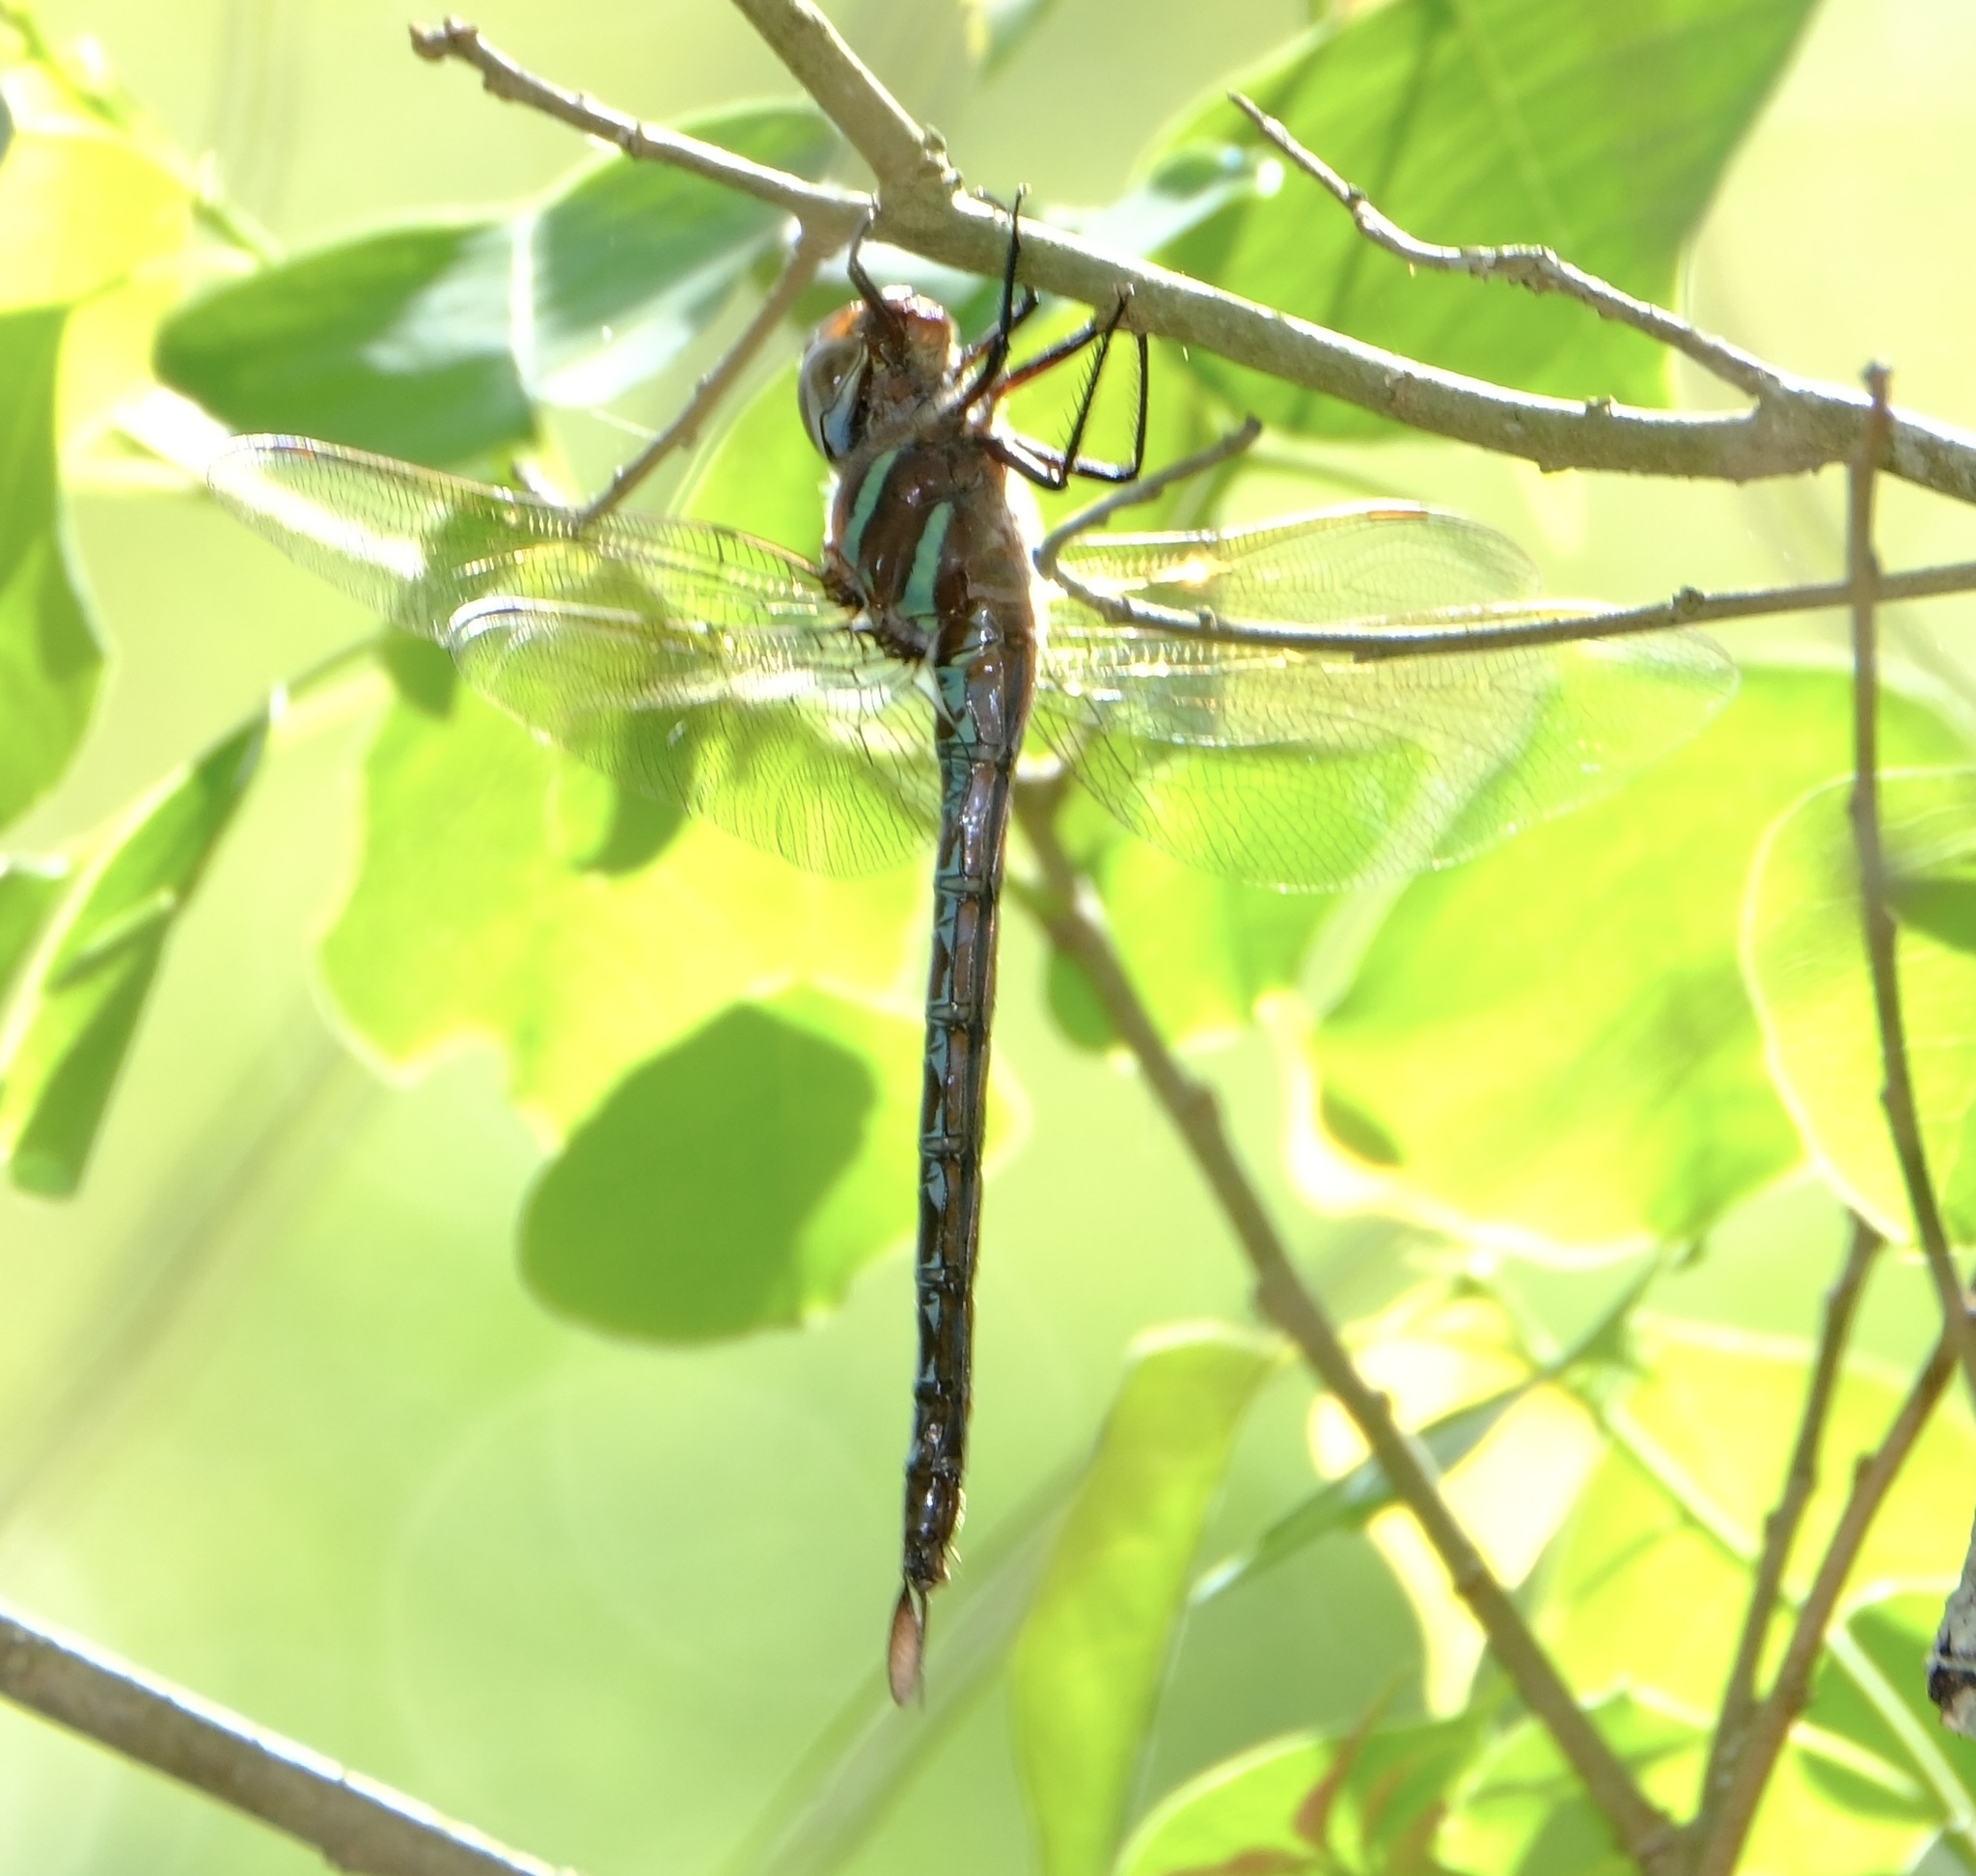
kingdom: Animalia
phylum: Arthropoda
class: Insecta
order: Odonata
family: Aeshnidae
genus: Epiaeschna
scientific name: Epiaeschna heros
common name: Swamp darner
